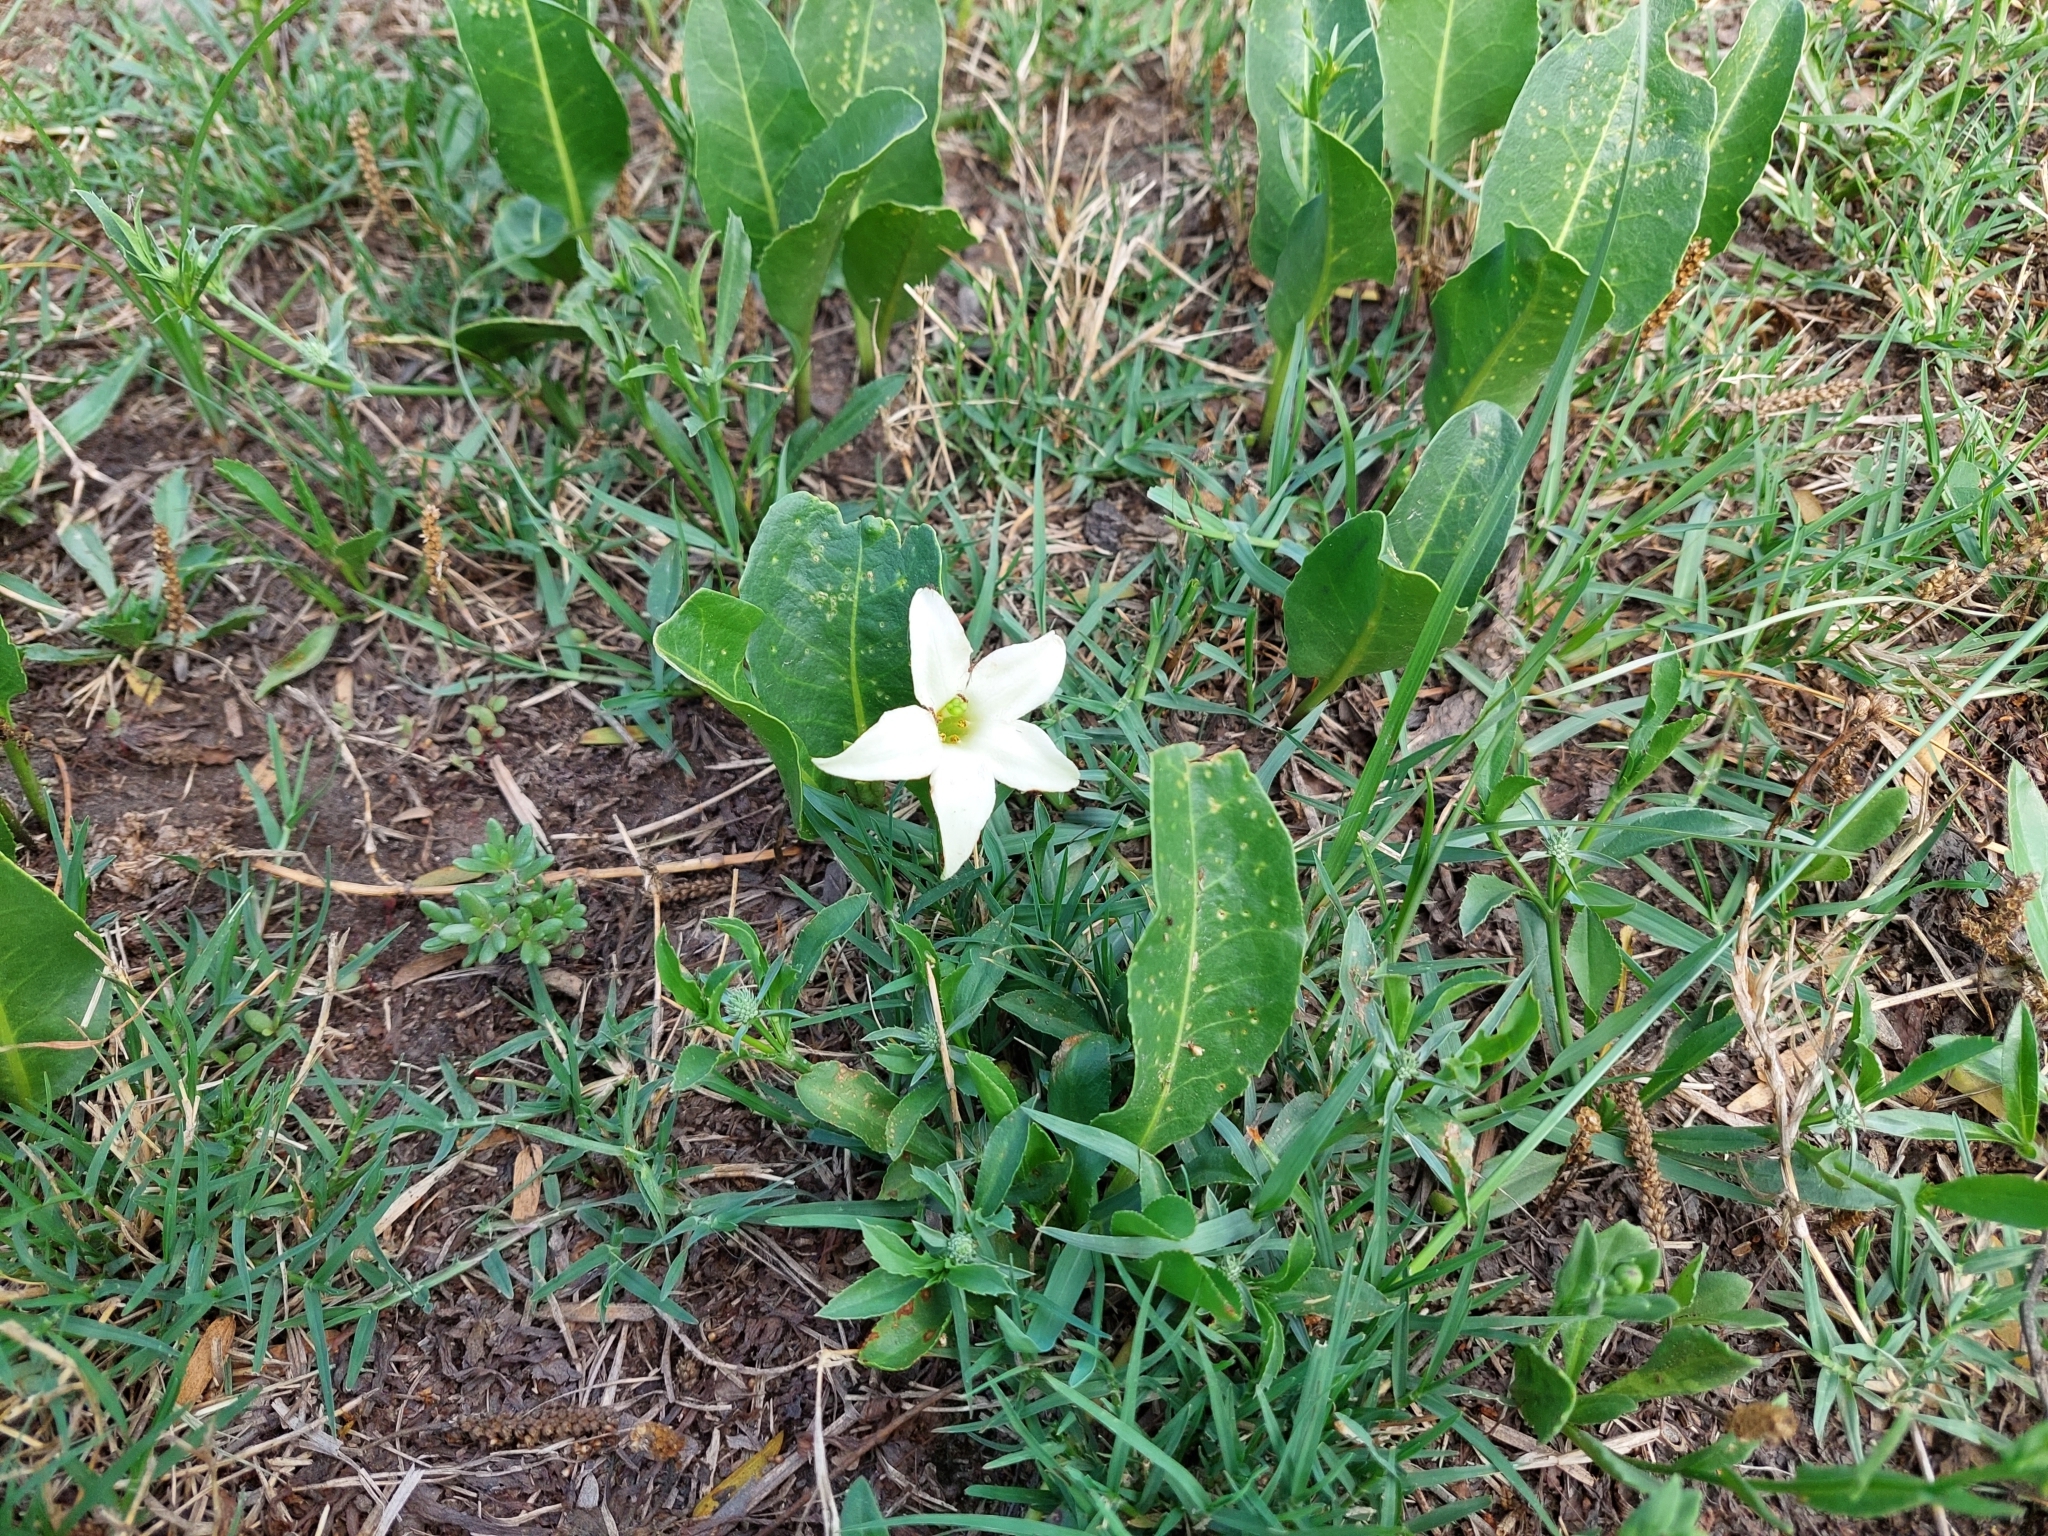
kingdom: Plantae
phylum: Tracheophyta
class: Magnoliopsida
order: Solanales
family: Solanaceae
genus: Jaborosa
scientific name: Jaborosa integrifolia
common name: Springblossom
